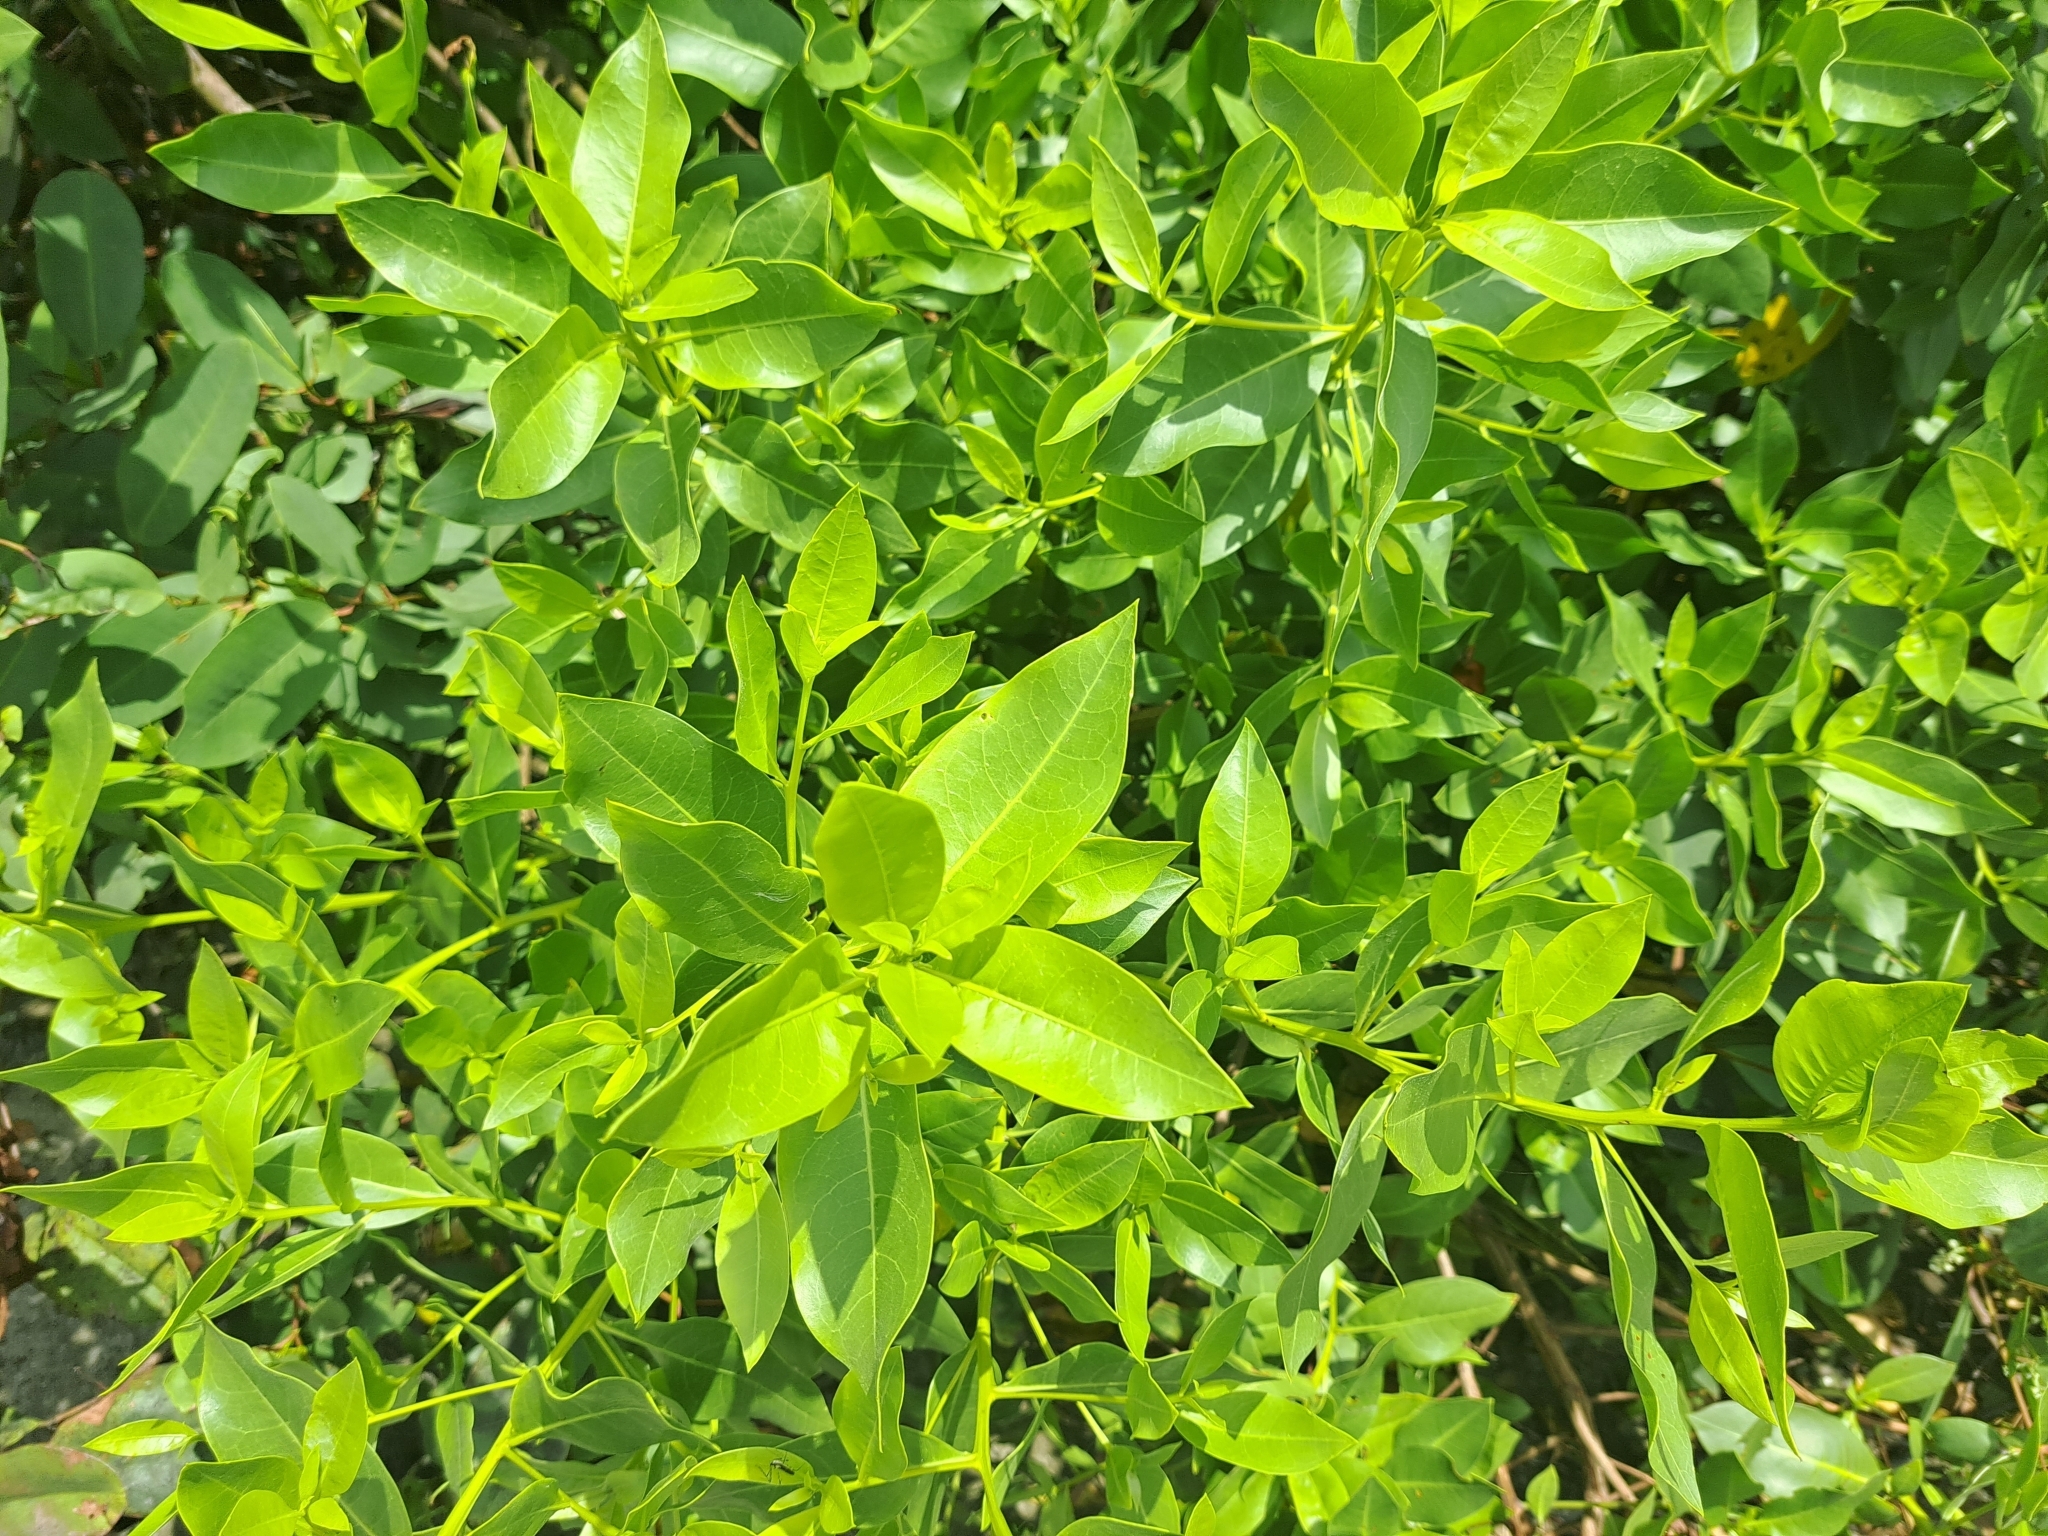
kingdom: Plantae
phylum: Tracheophyta
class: Magnoliopsida
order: Myrtales
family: Combretaceae
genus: Conocarpus
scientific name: Conocarpus erectus
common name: Button mangrove
